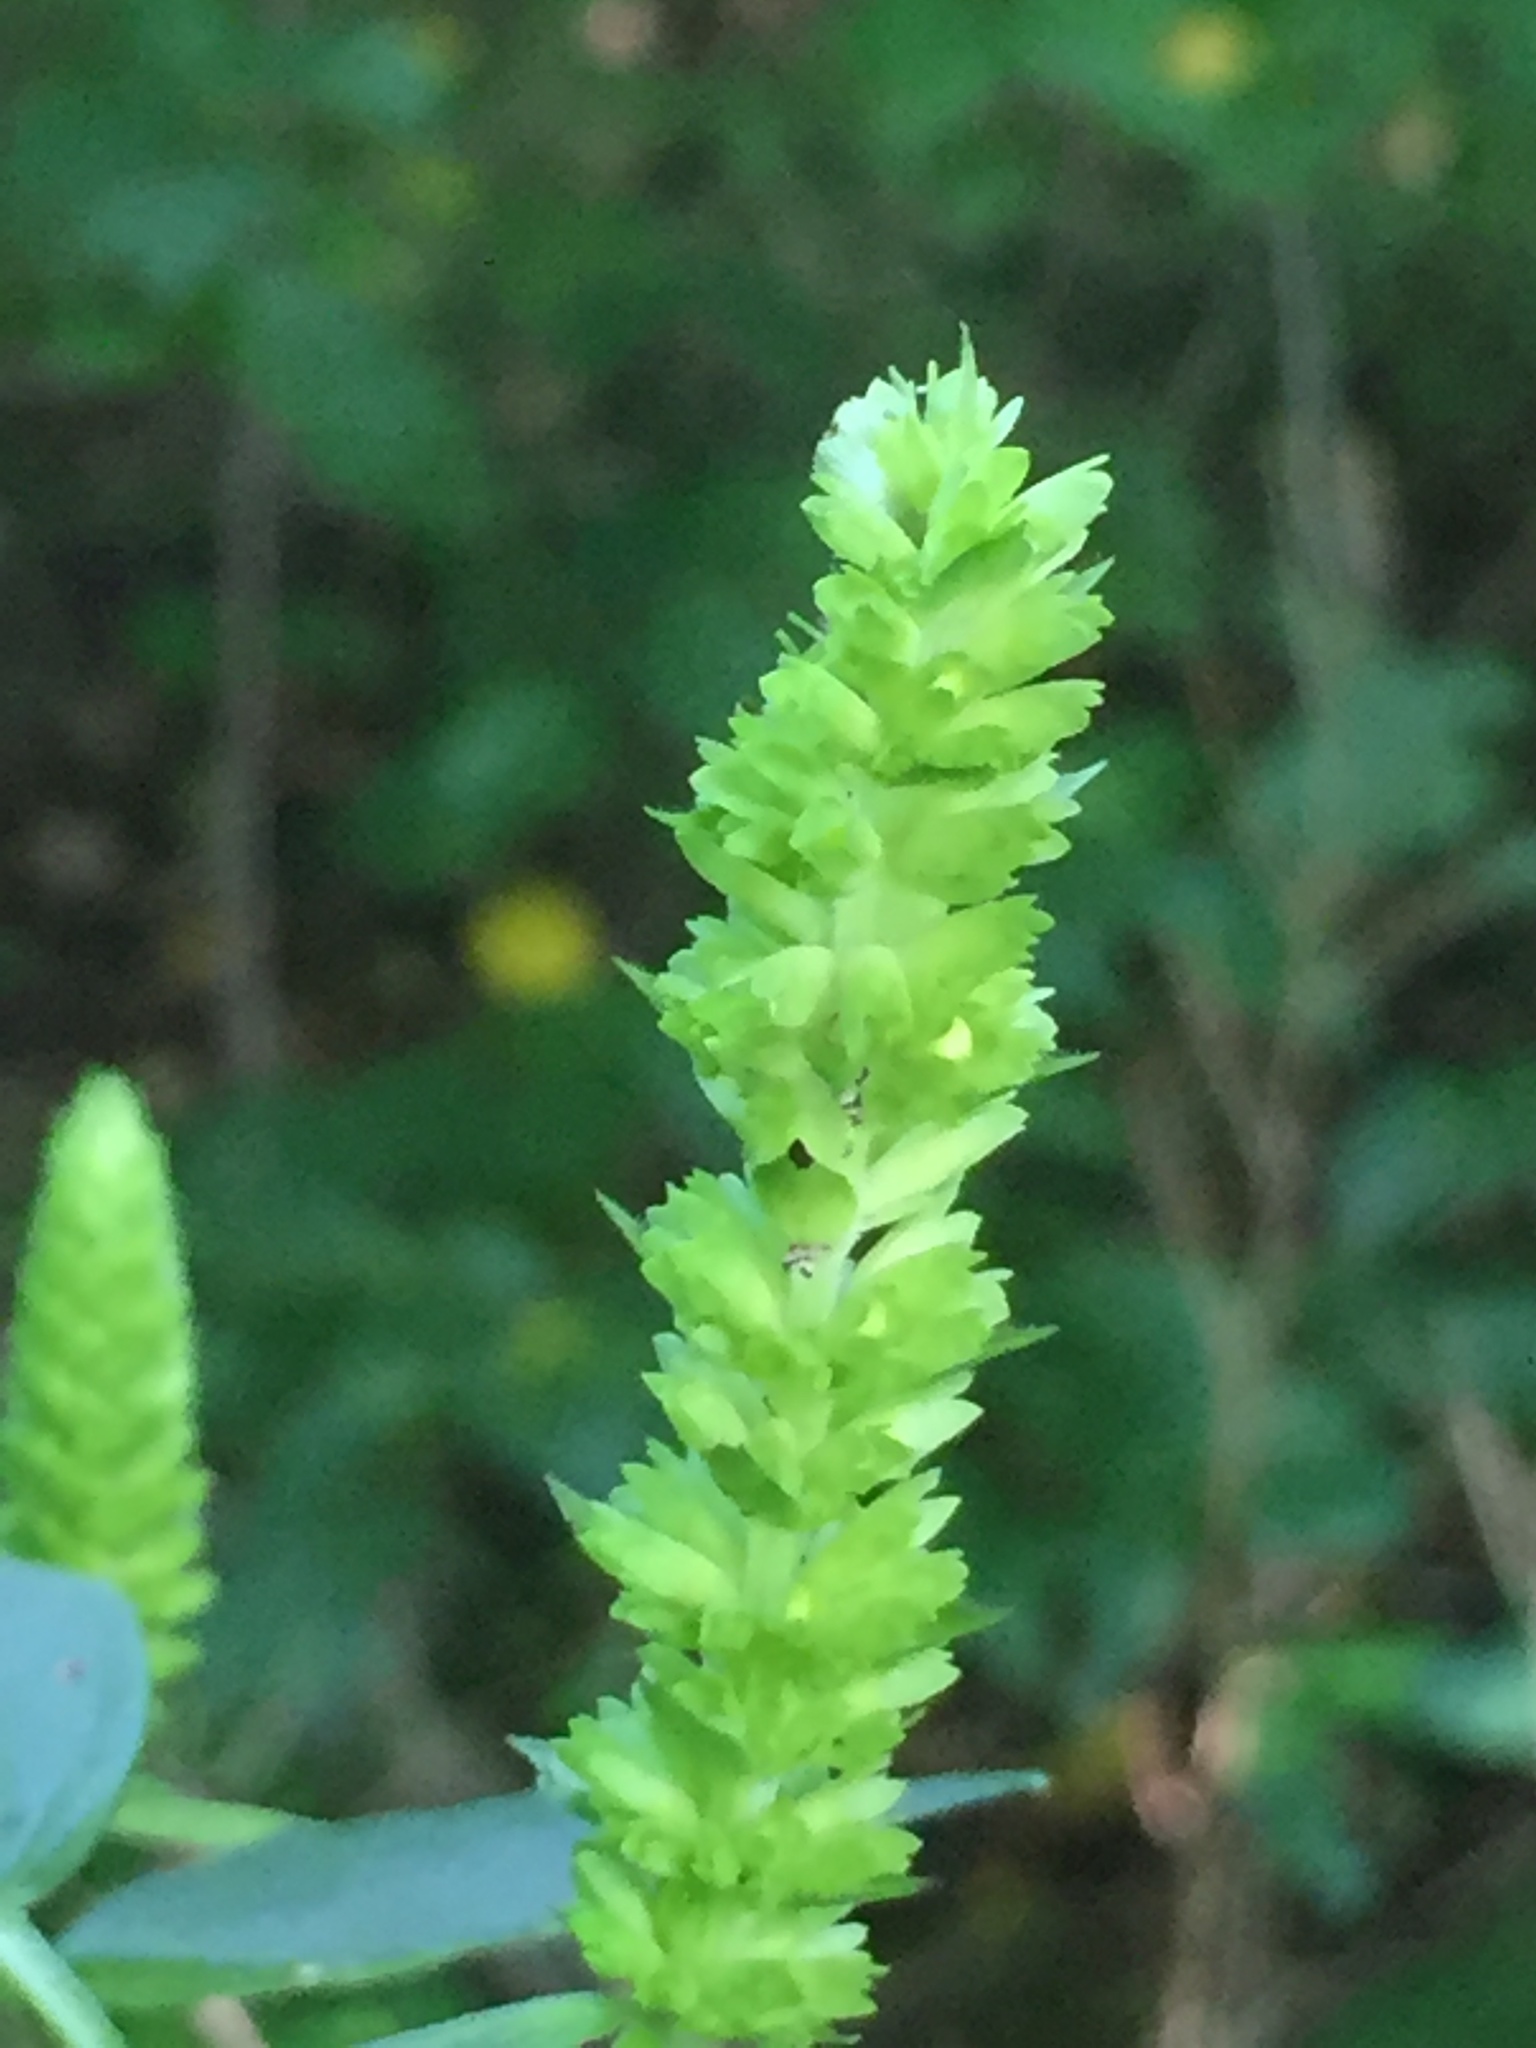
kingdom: Plantae
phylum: Tracheophyta
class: Magnoliopsida
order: Lamiales
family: Lamiaceae
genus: Agastache
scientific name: Agastache nepetoides
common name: Catnip giant hyssop
